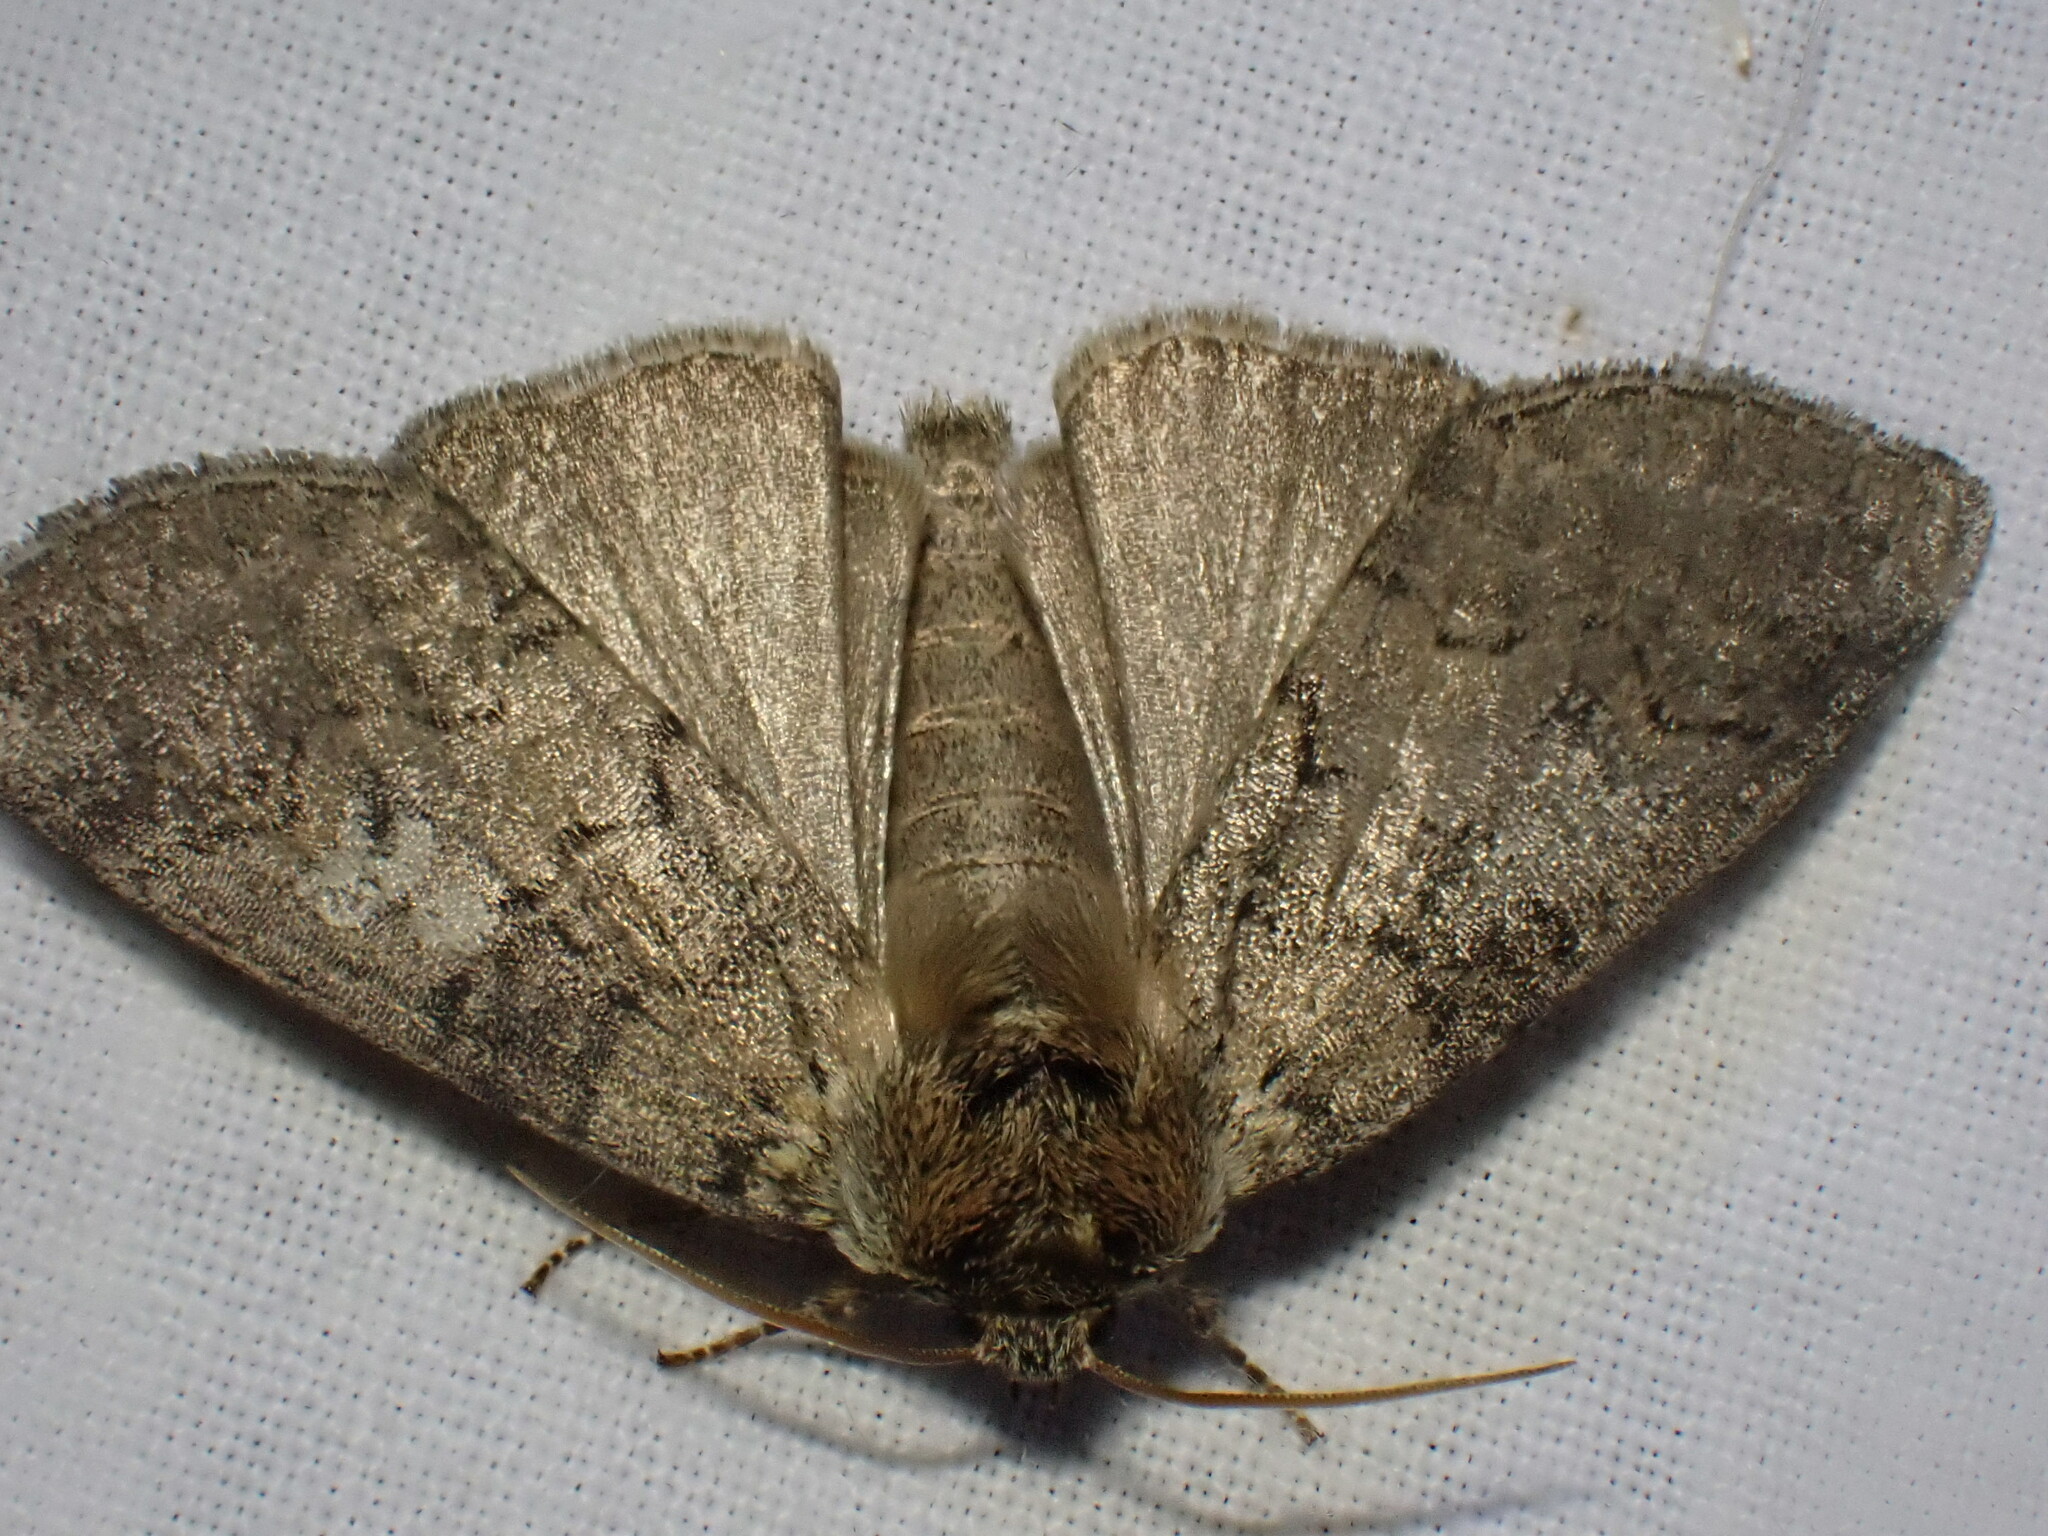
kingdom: Animalia
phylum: Arthropoda
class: Insecta
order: Lepidoptera
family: Drepanidae
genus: Tethea
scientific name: Tethea or
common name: Poplar lutestring
